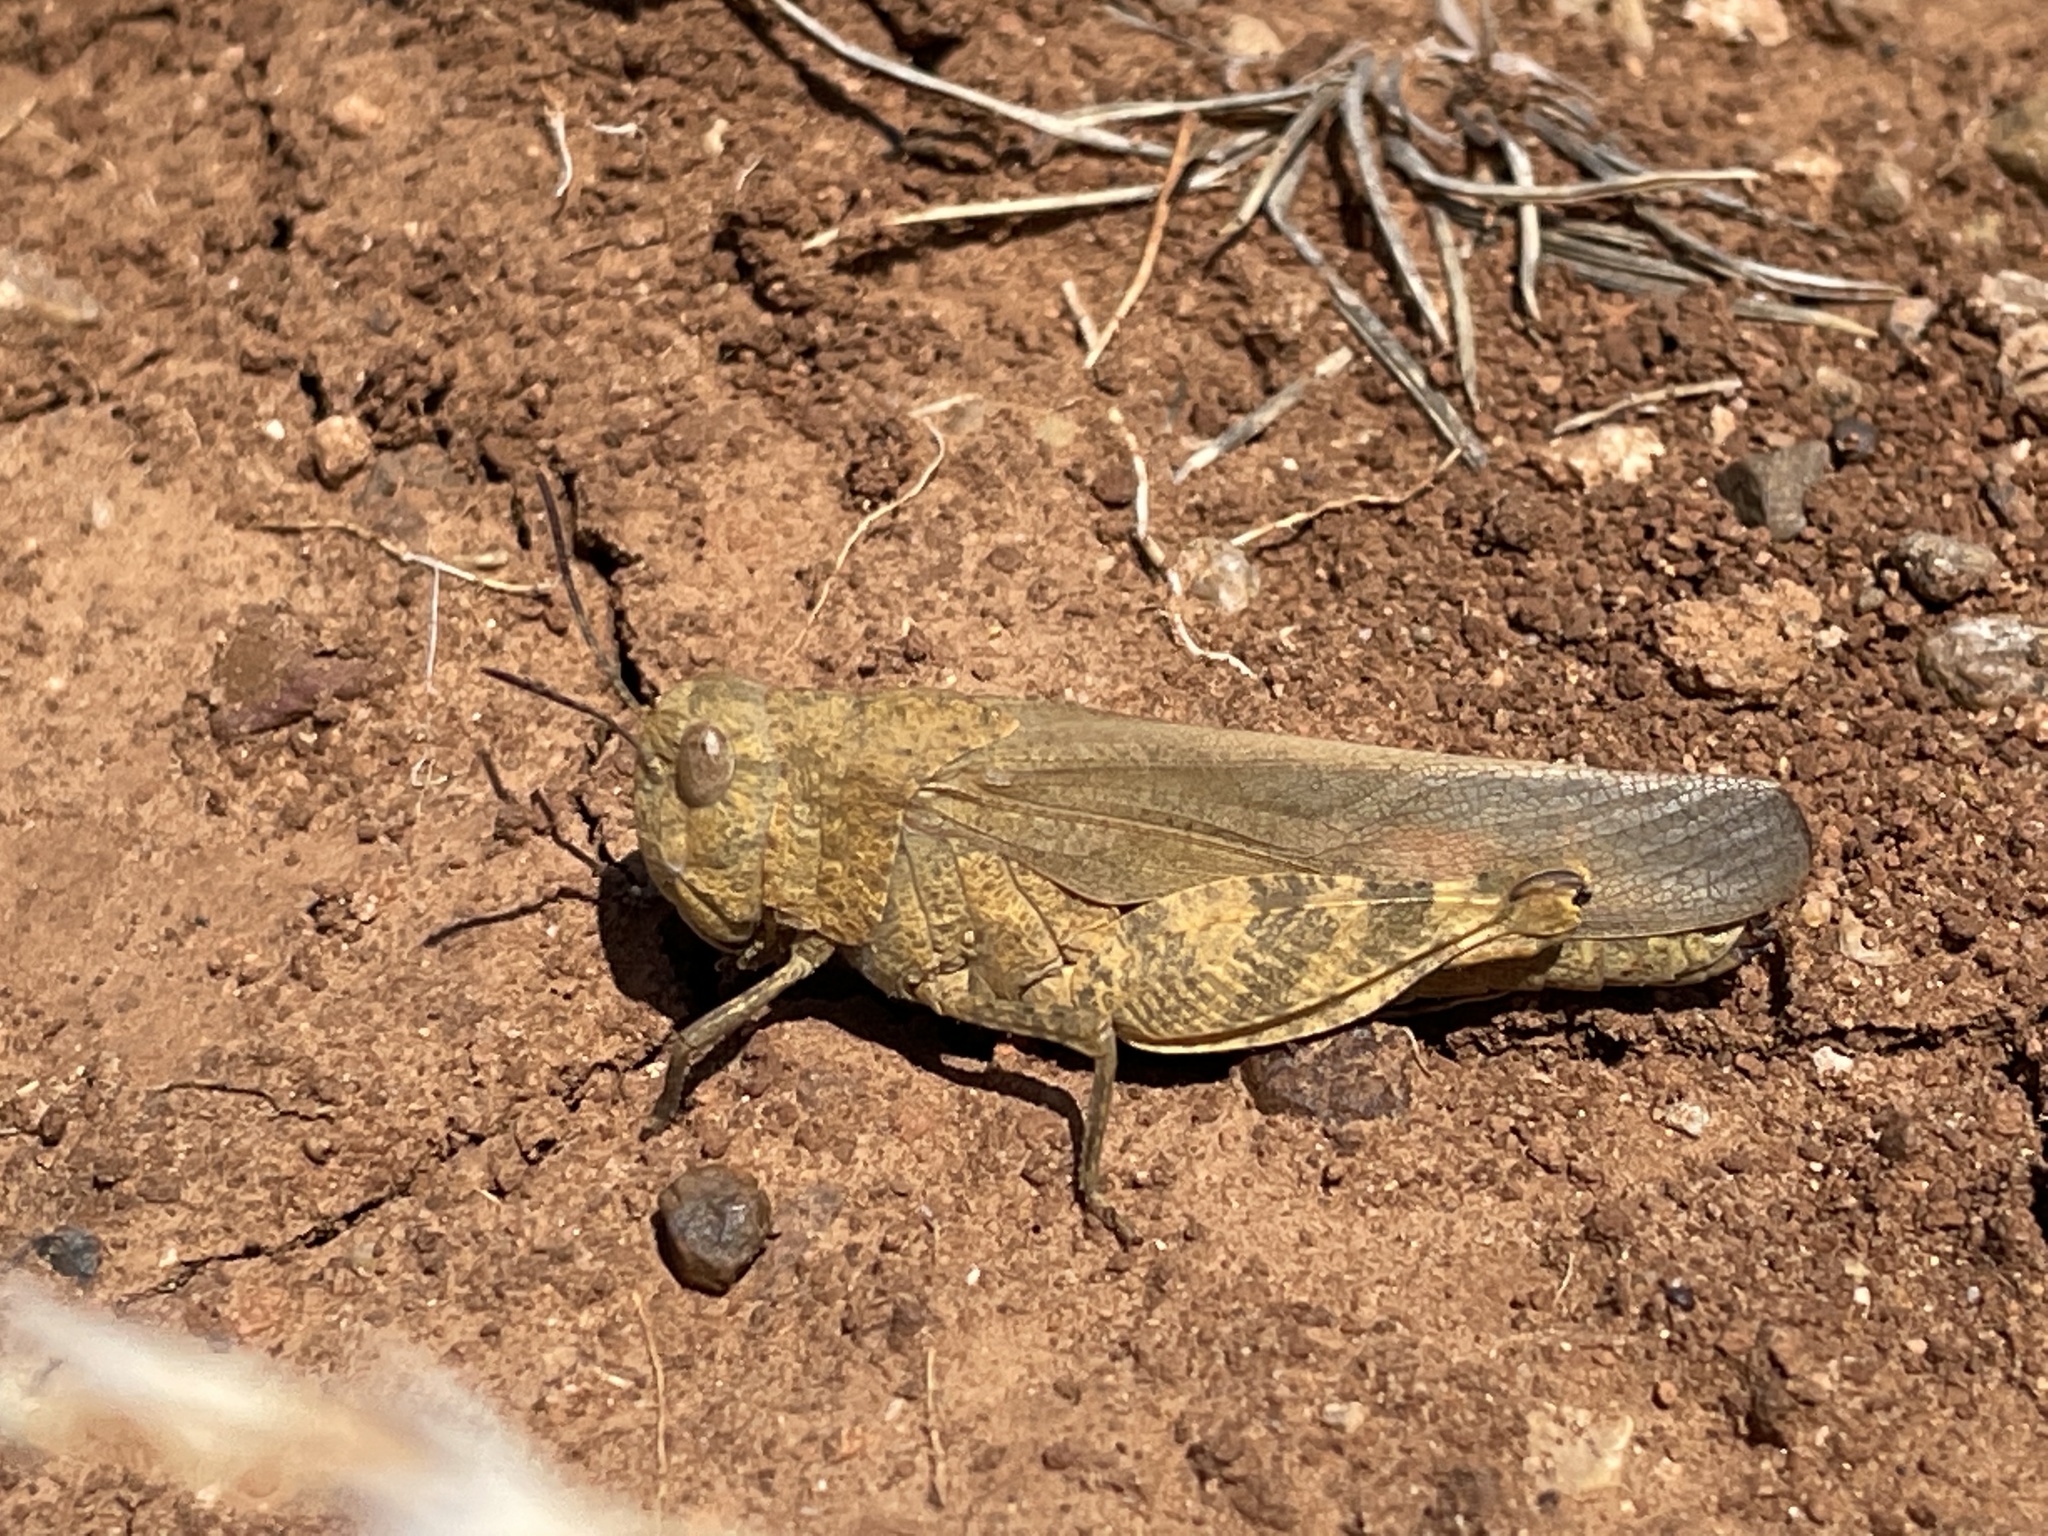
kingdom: Animalia
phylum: Arthropoda
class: Insecta
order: Orthoptera
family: Acrididae
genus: Arphia
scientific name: Arphia conspersa
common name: Speckle-winged rangeland grasshopper
